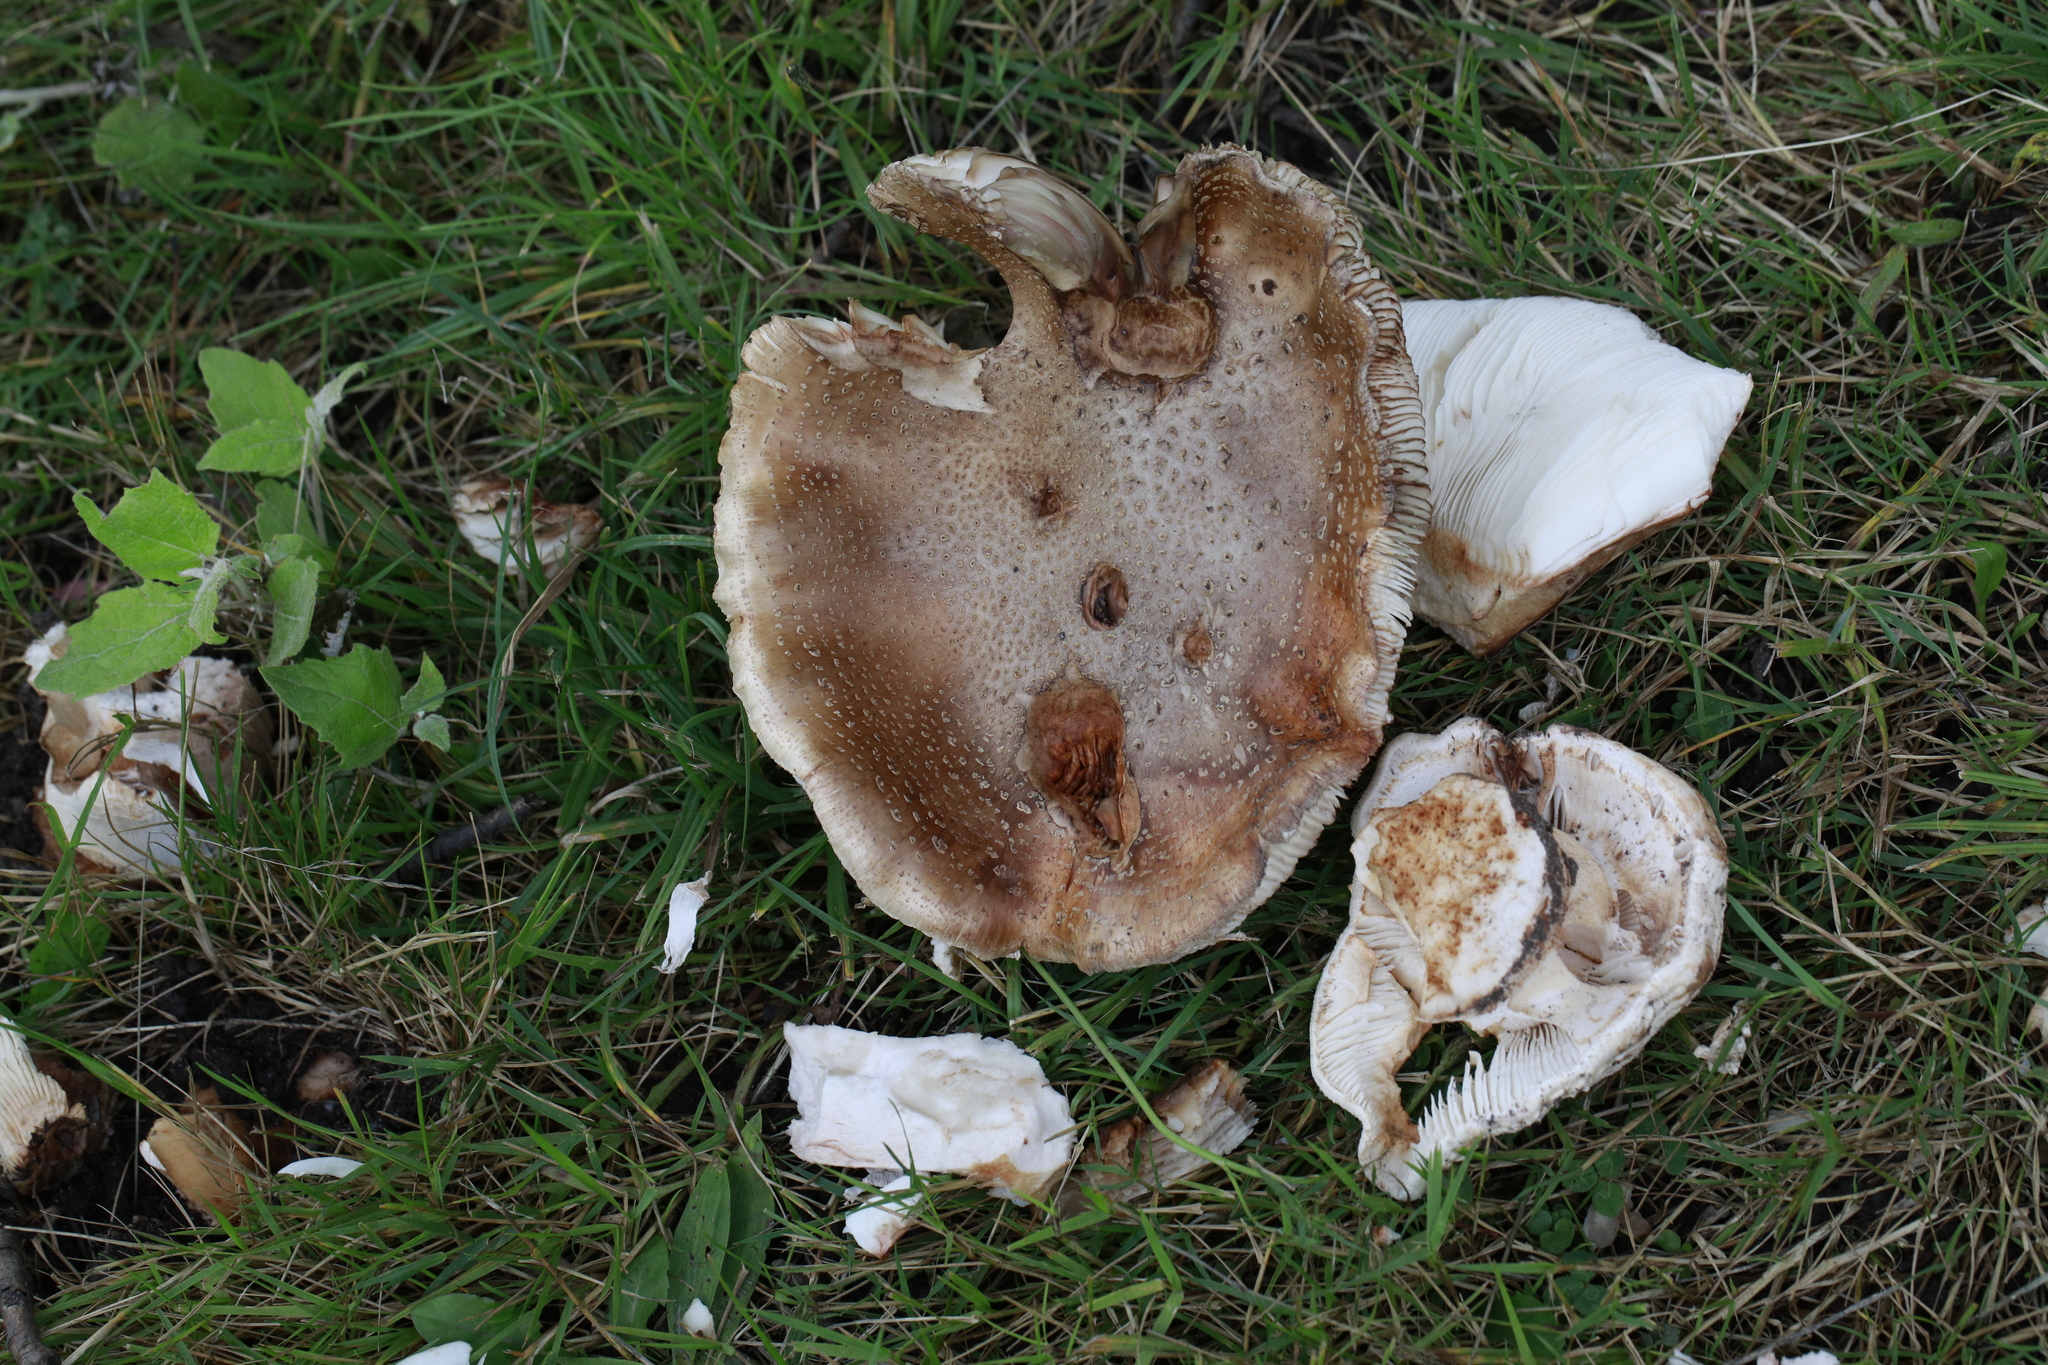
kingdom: Fungi
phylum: Basidiomycota
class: Agaricomycetes
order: Agaricales
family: Amanitaceae
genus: Amanita
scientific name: Amanita rubescens
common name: Blusher
